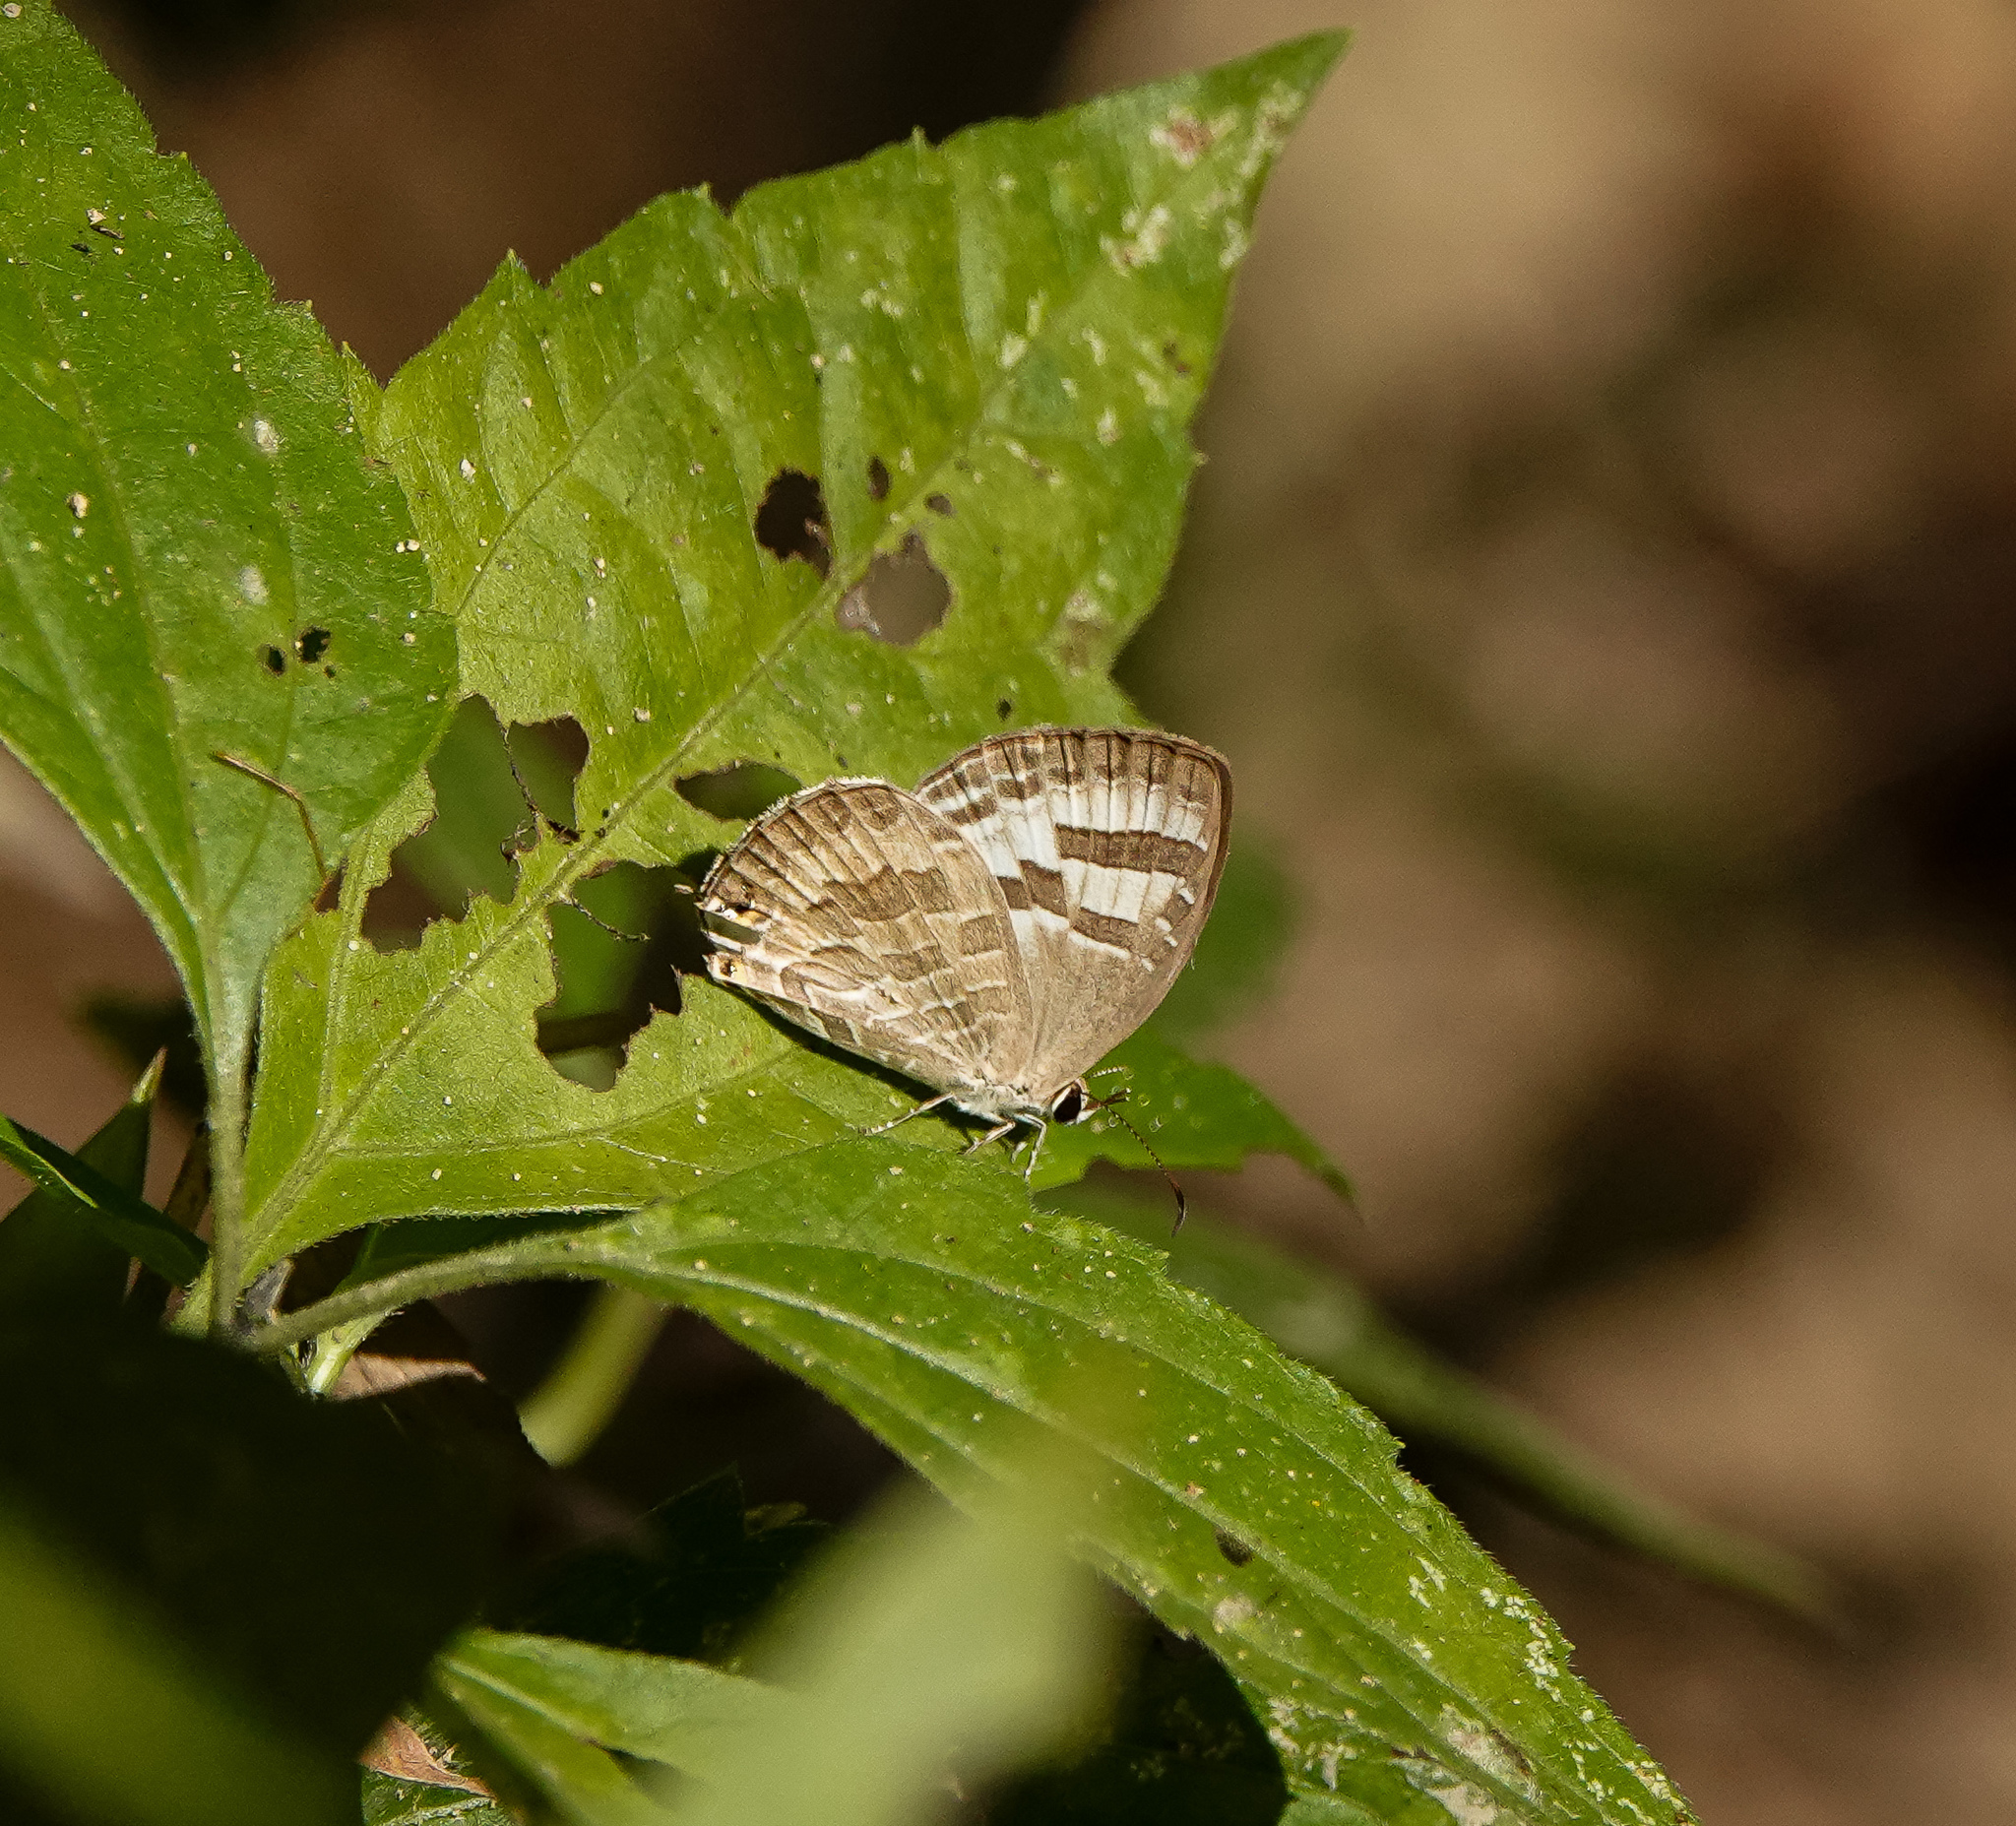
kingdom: Animalia
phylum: Arthropoda
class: Insecta
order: Lepidoptera
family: Lycaenidae
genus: Jamides
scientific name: Jamides celeno
